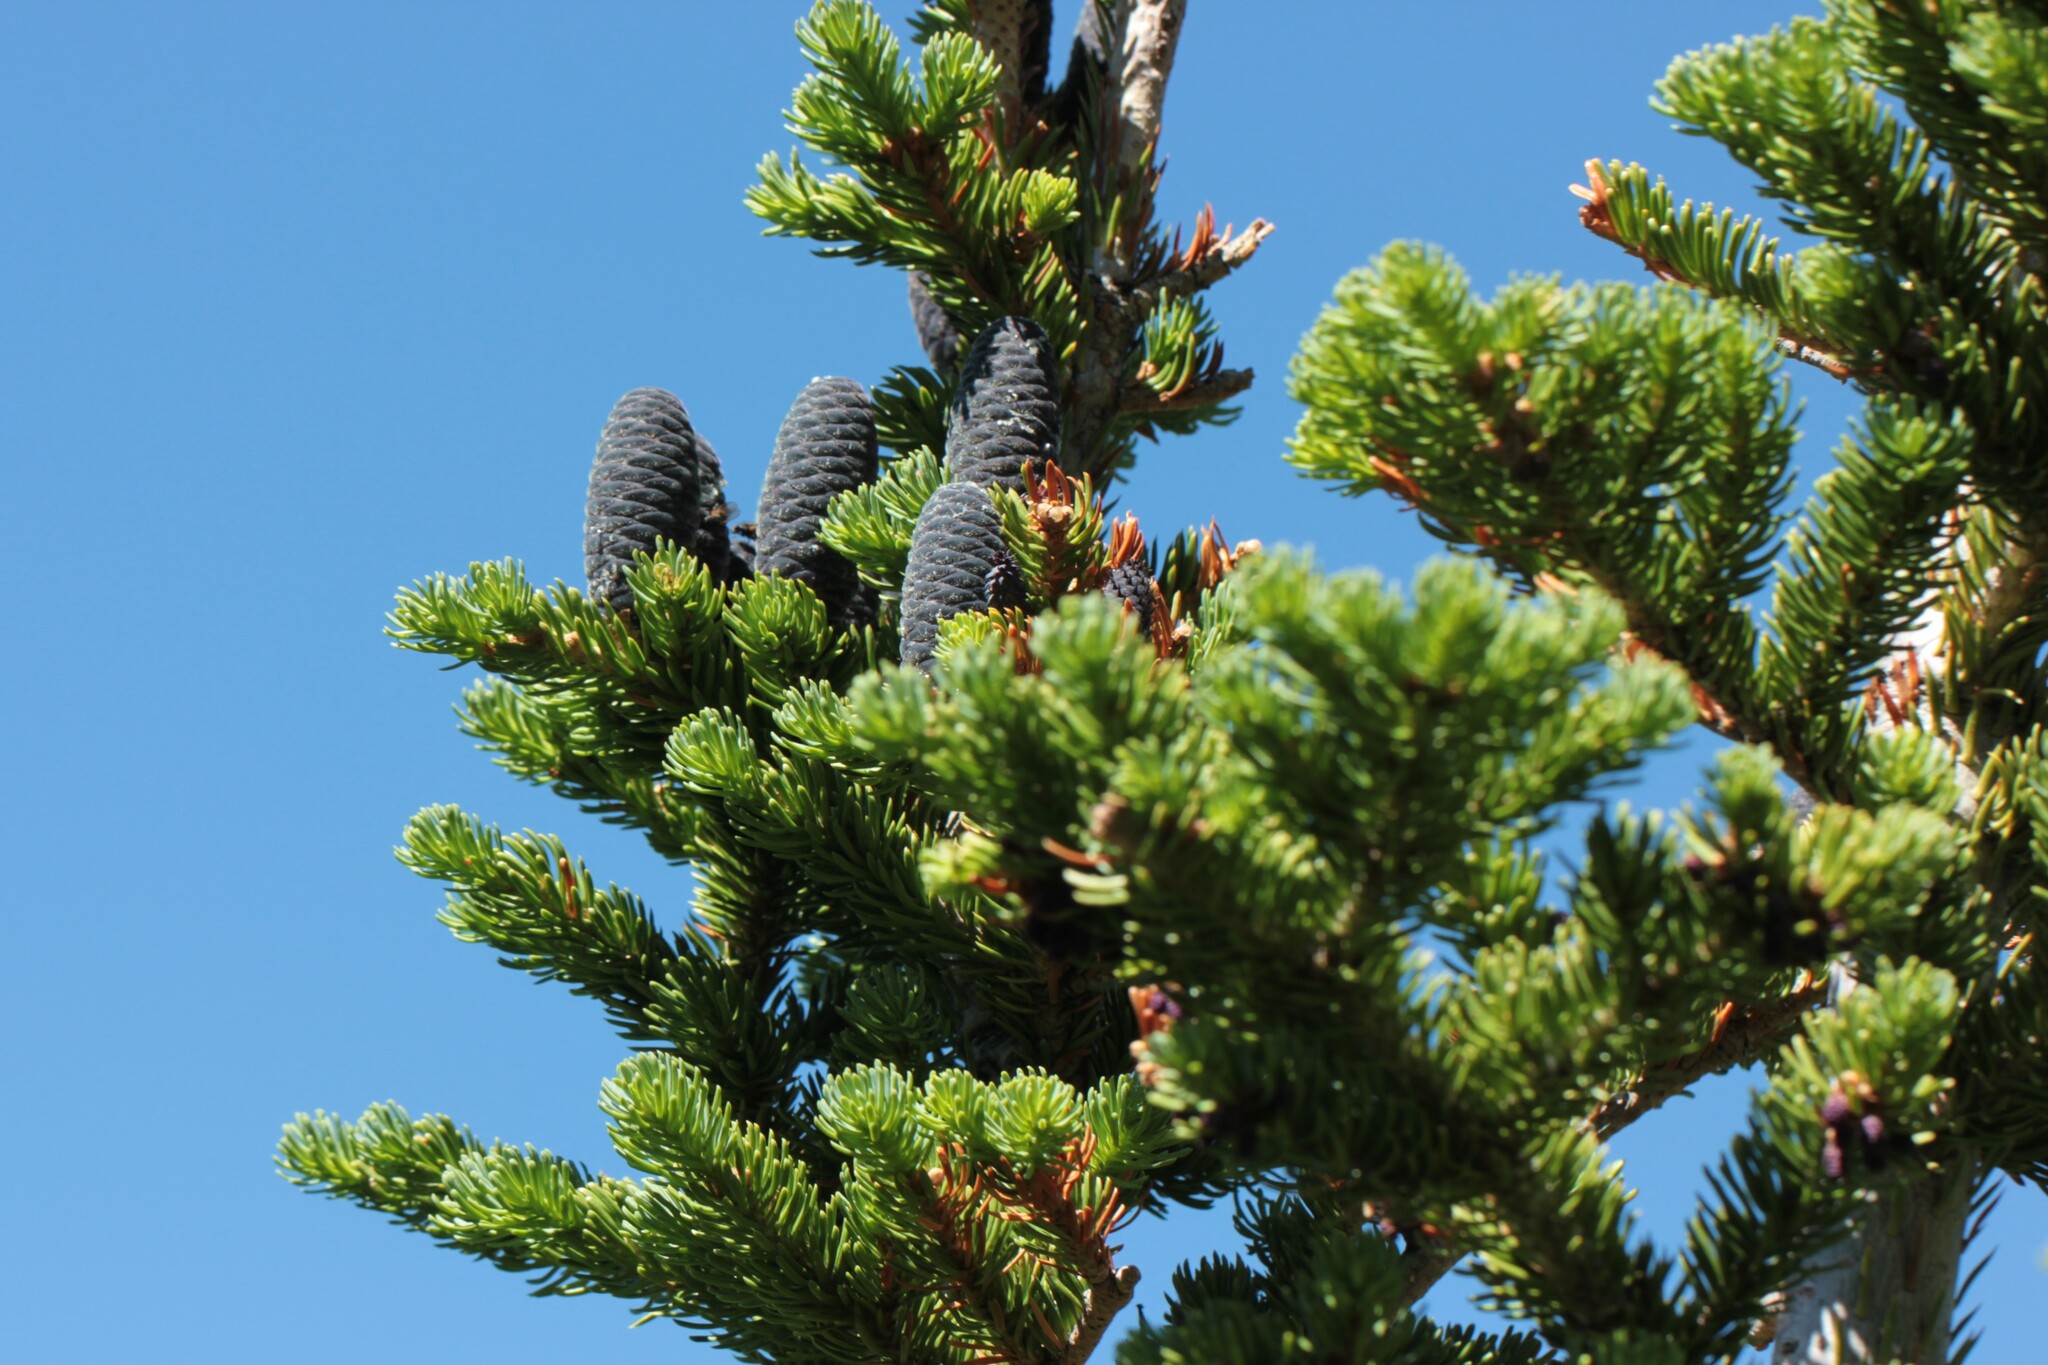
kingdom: Plantae
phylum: Tracheophyta
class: Pinopsida
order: Pinales
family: Pinaceae
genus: Abies
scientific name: Abies lasiocarpa
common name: Subalpine fir
